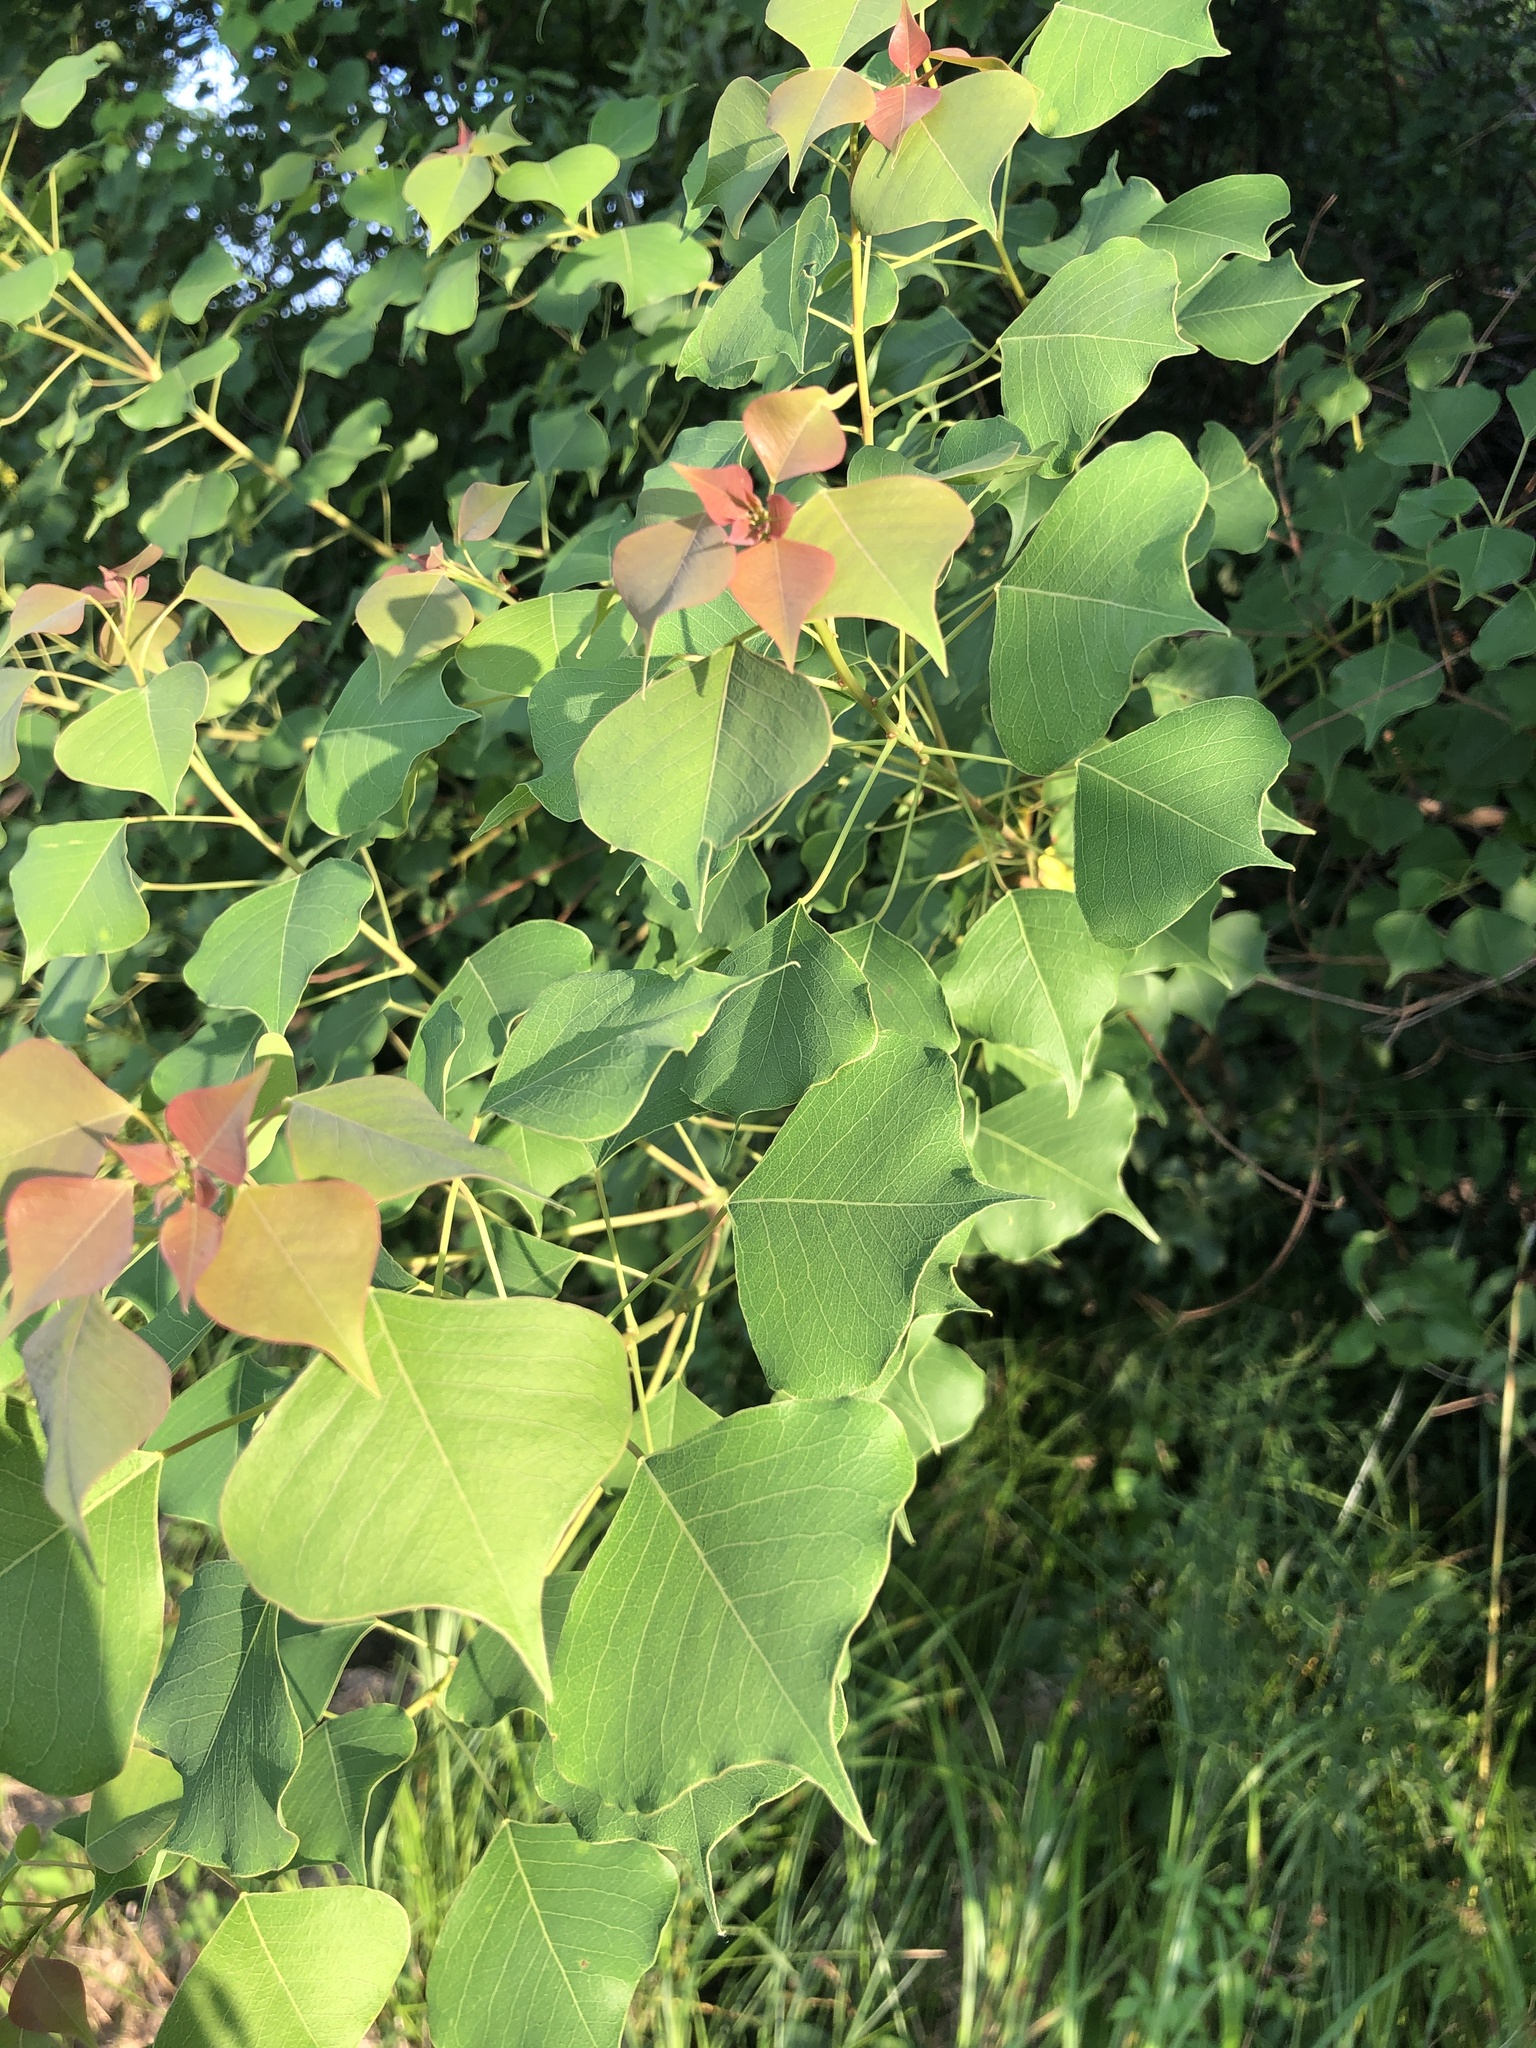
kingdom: Plantae
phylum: Tracheophyta
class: Magnoliopsida
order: Malpighiales
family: Euphorbiaceae
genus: Triadica
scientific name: Triadica sebifera
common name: Chinese tallow
